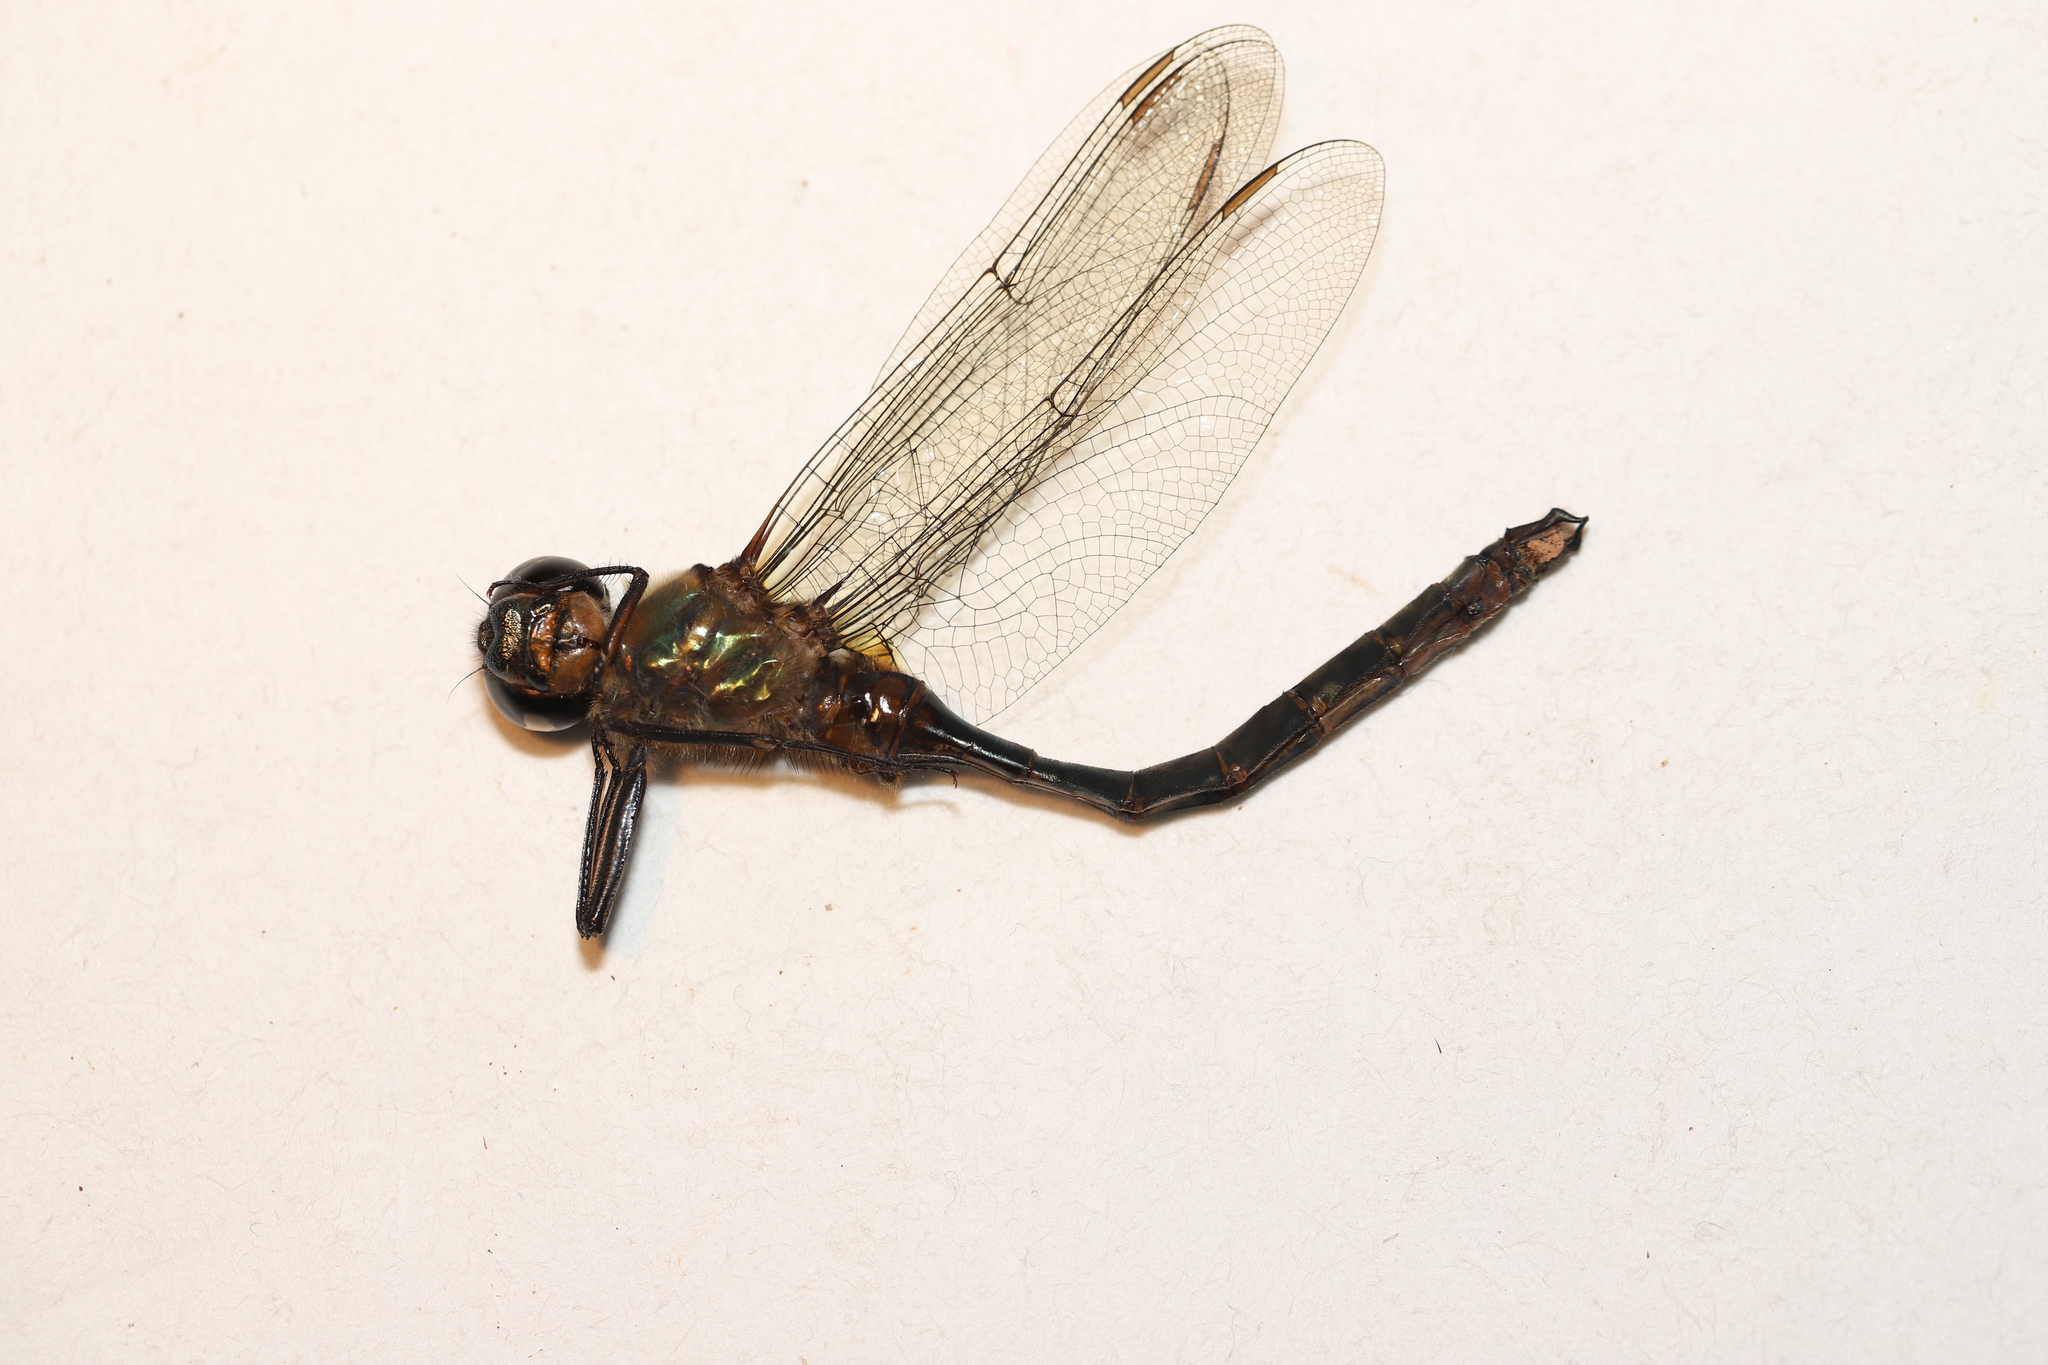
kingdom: Animalia
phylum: Arthropoda
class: Insecta
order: Odonata
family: Corduliidae
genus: Somatochlora
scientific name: Somatochlora cingulata
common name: Lake emerald
